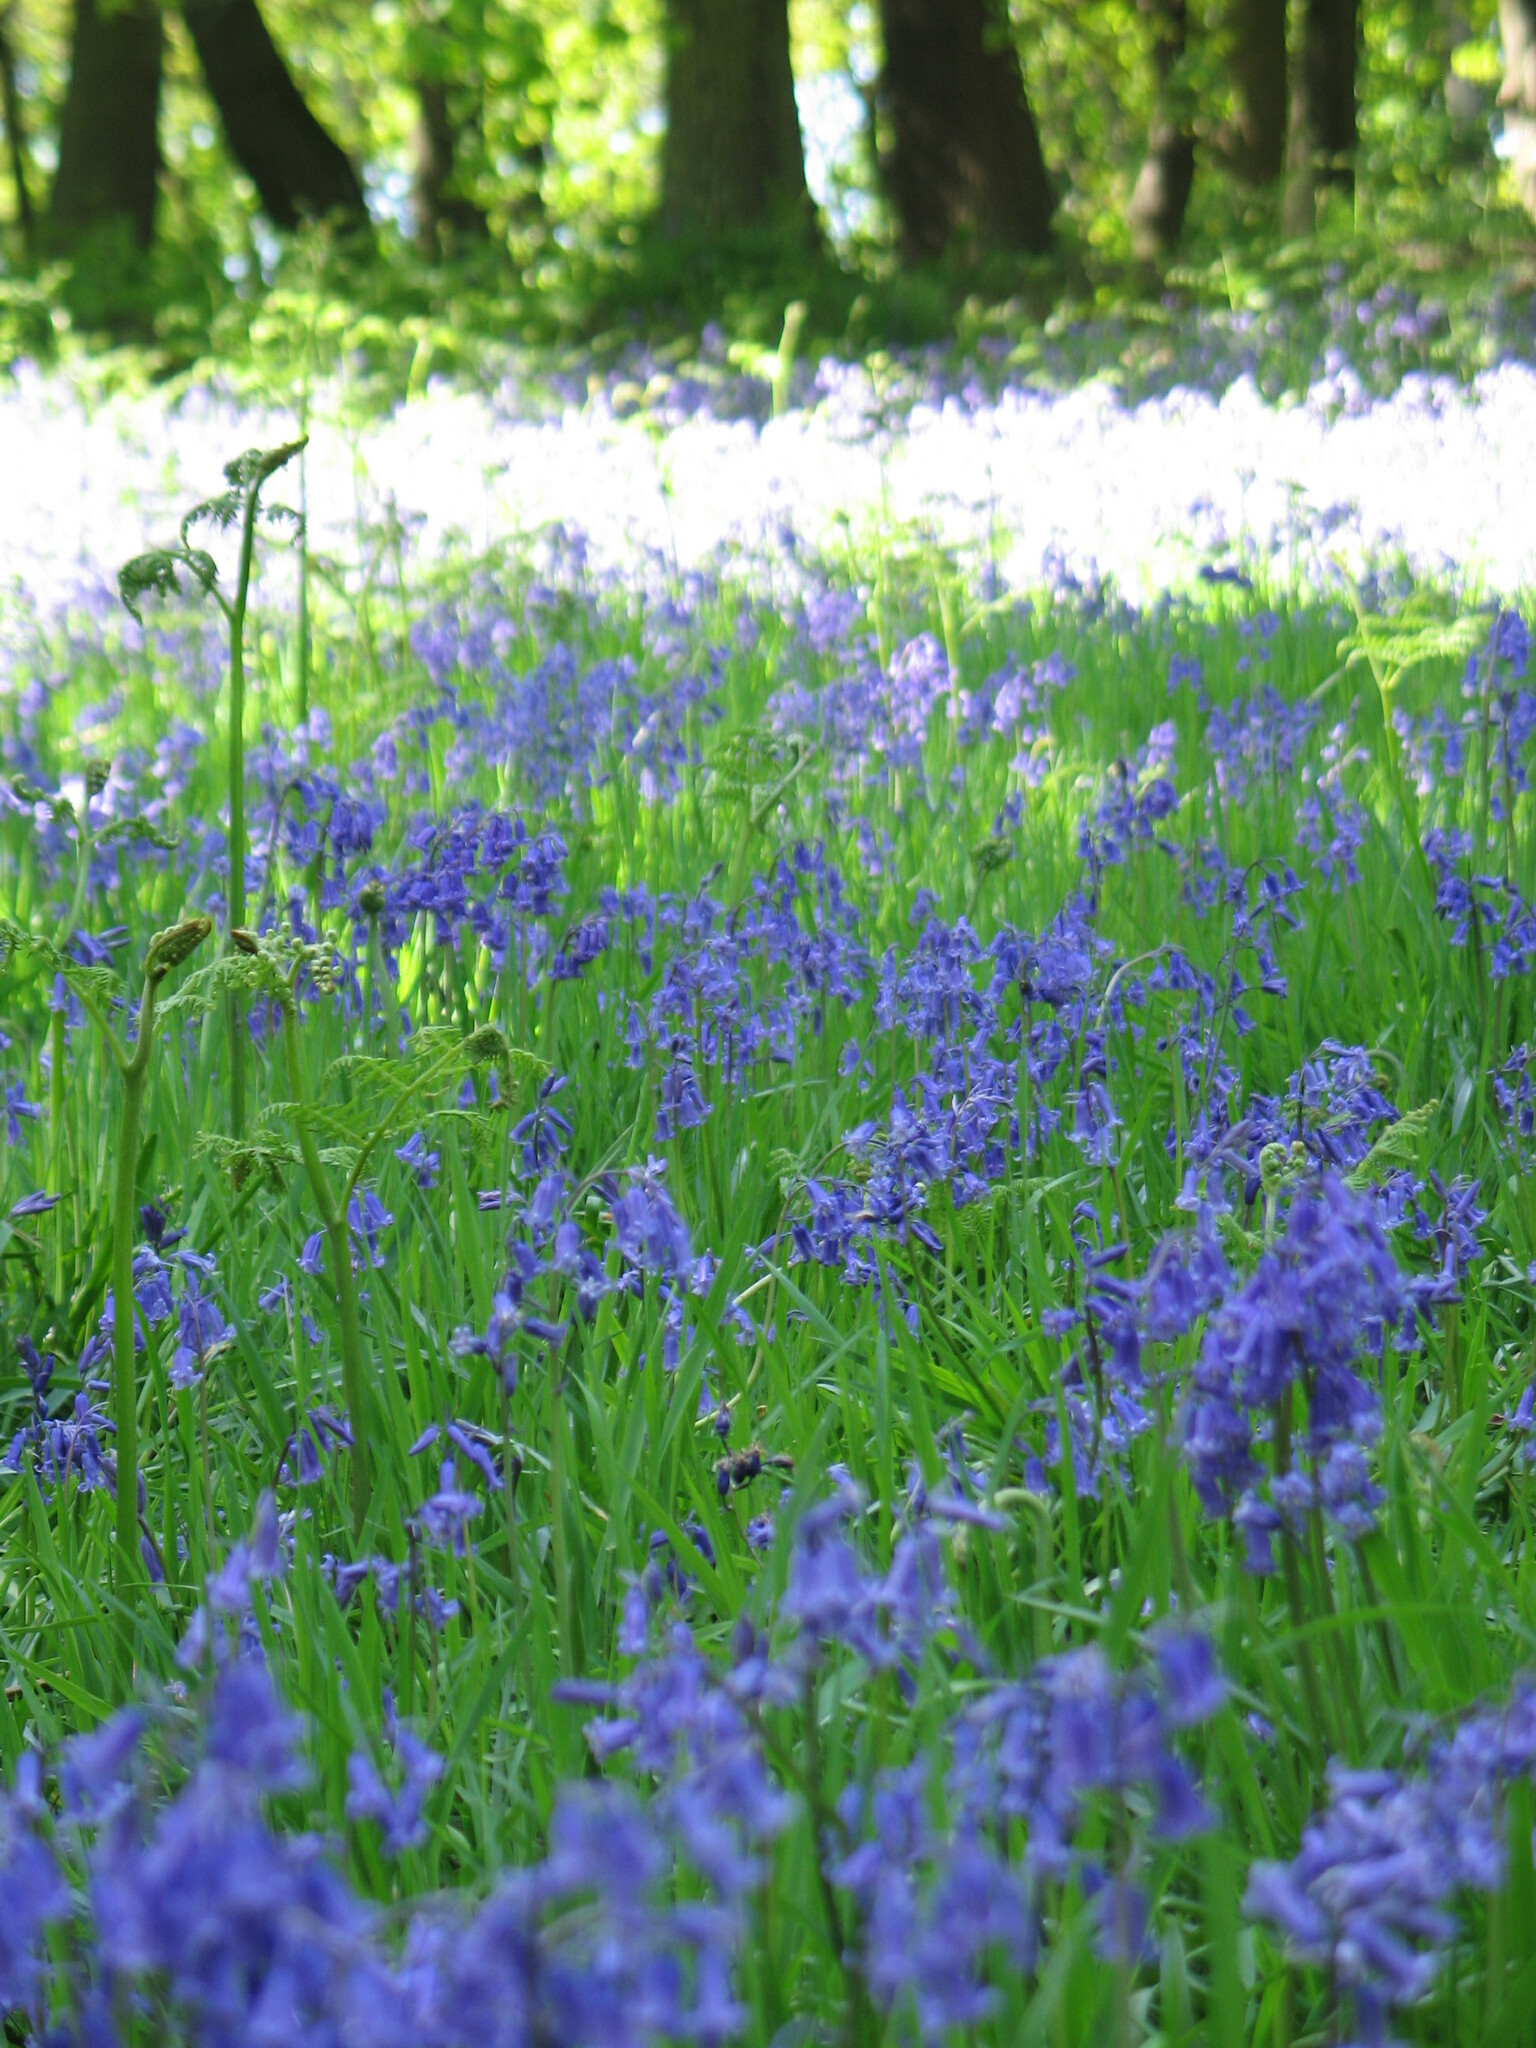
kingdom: Plantae
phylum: Tracheophyta
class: Liliopsida
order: Asparagales
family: Asparagaceae
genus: Hyacinthoides
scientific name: Hyacinthoides non-scripta
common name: Bluebell
